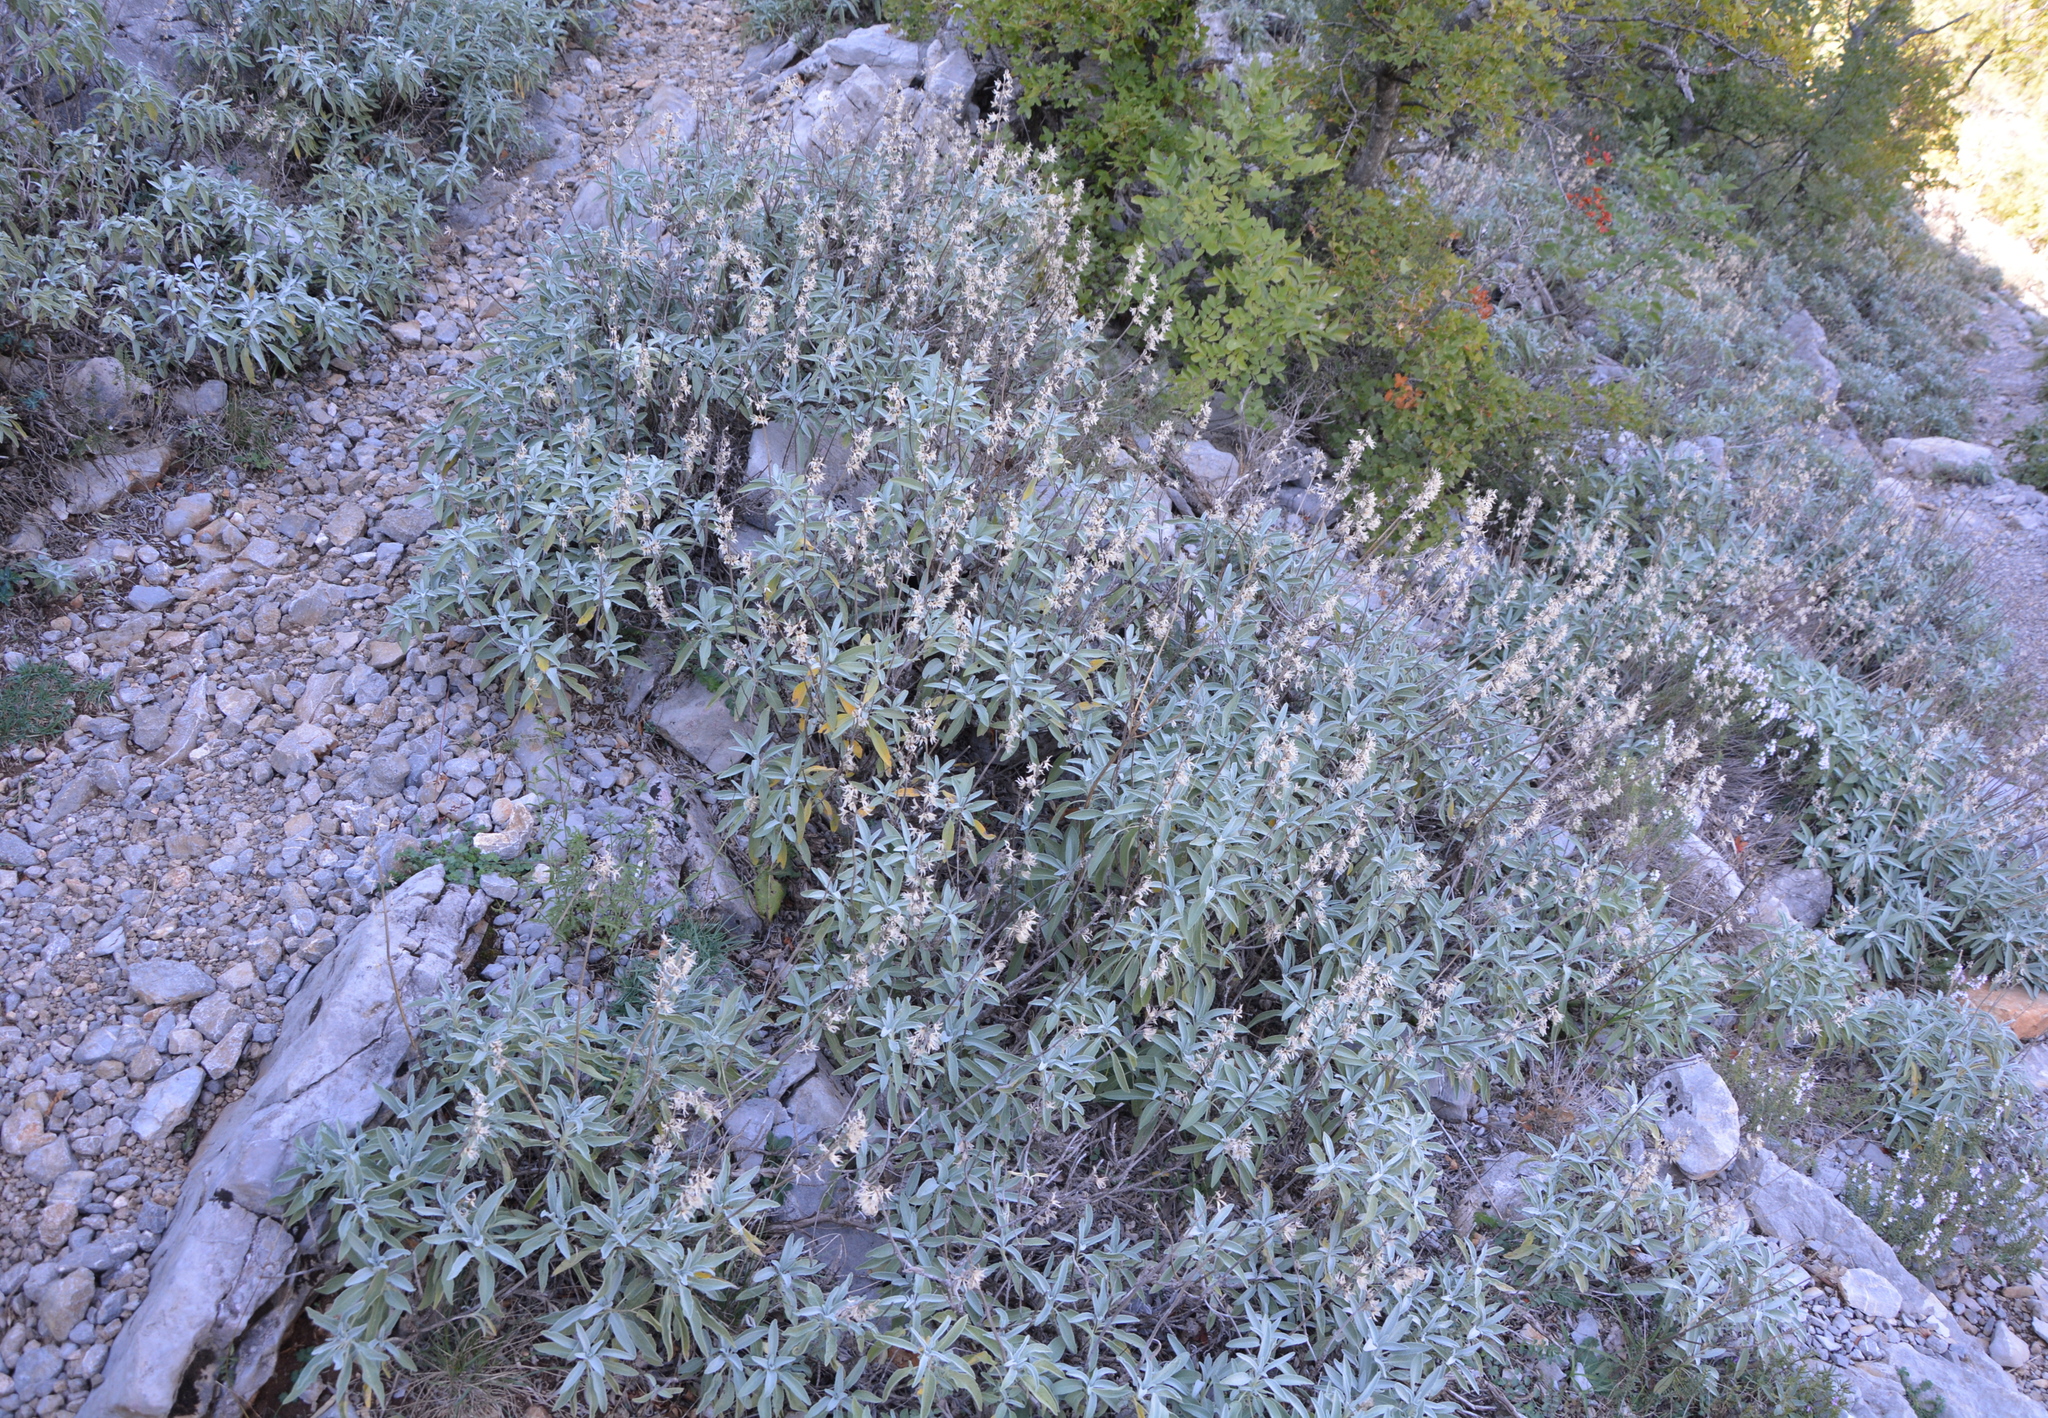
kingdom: Plantae
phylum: Tracheophyta
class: Magnoliopsida
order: Lamiales
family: Lamiaceae
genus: Salvia
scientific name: Salvia officinalis
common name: Sage
